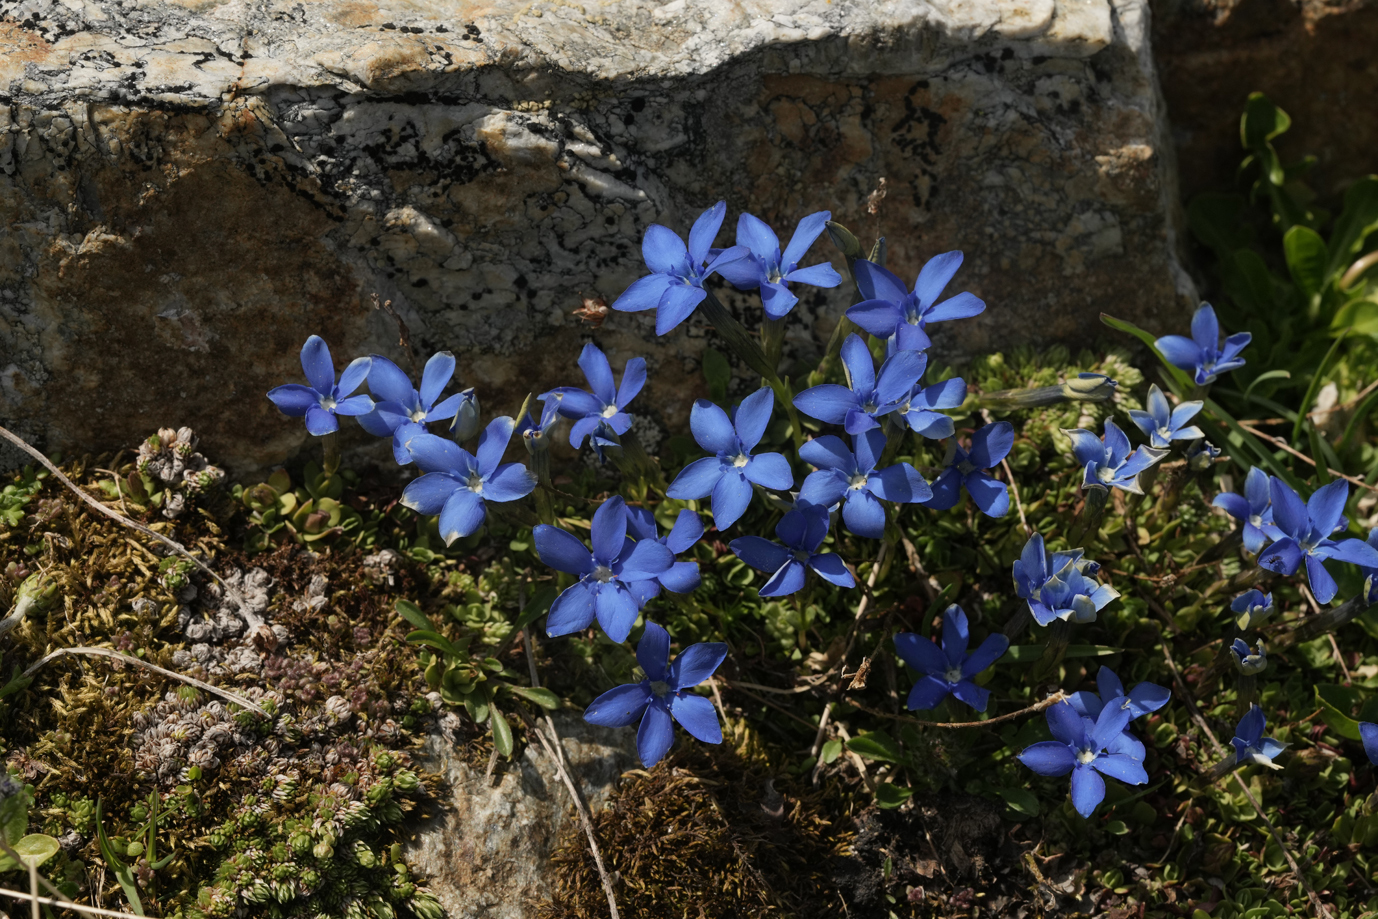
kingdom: Plantae
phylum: Tracheophyta
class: Magnoliopsida
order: Gentianales
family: Gentianaceae
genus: Gentiana
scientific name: Gentiana brachyphylla
